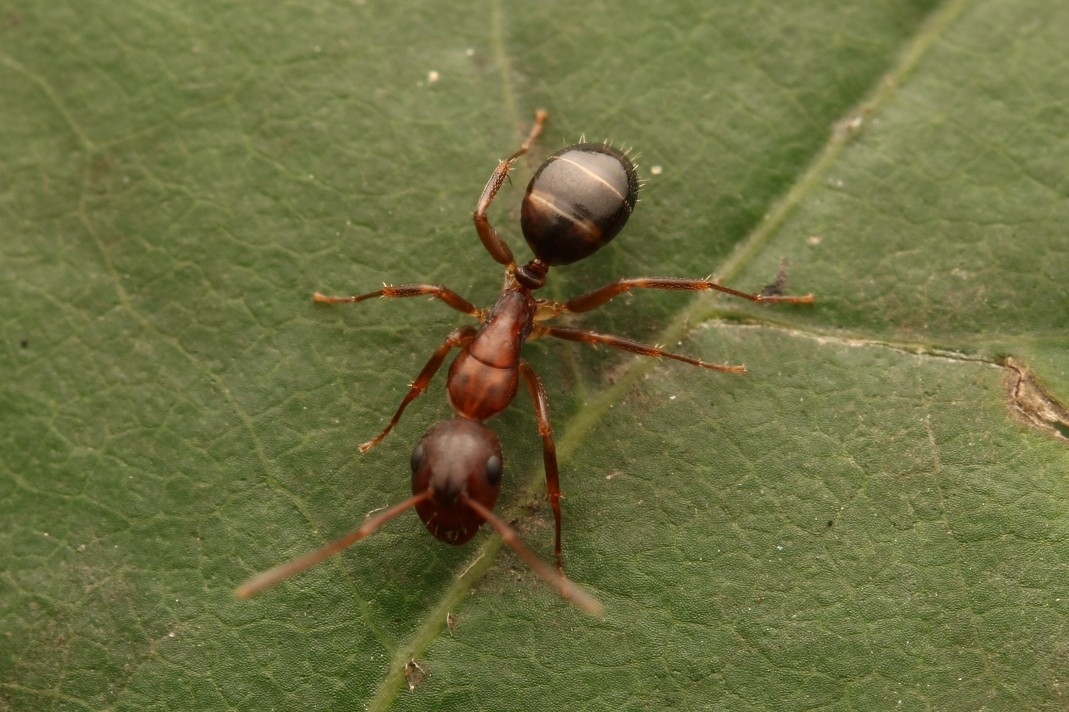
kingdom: Animalia
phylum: Arthropoda
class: Insecta
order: Hymenoptera
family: Formicidae
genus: Camponotus
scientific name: Camponotus subbarbatus
